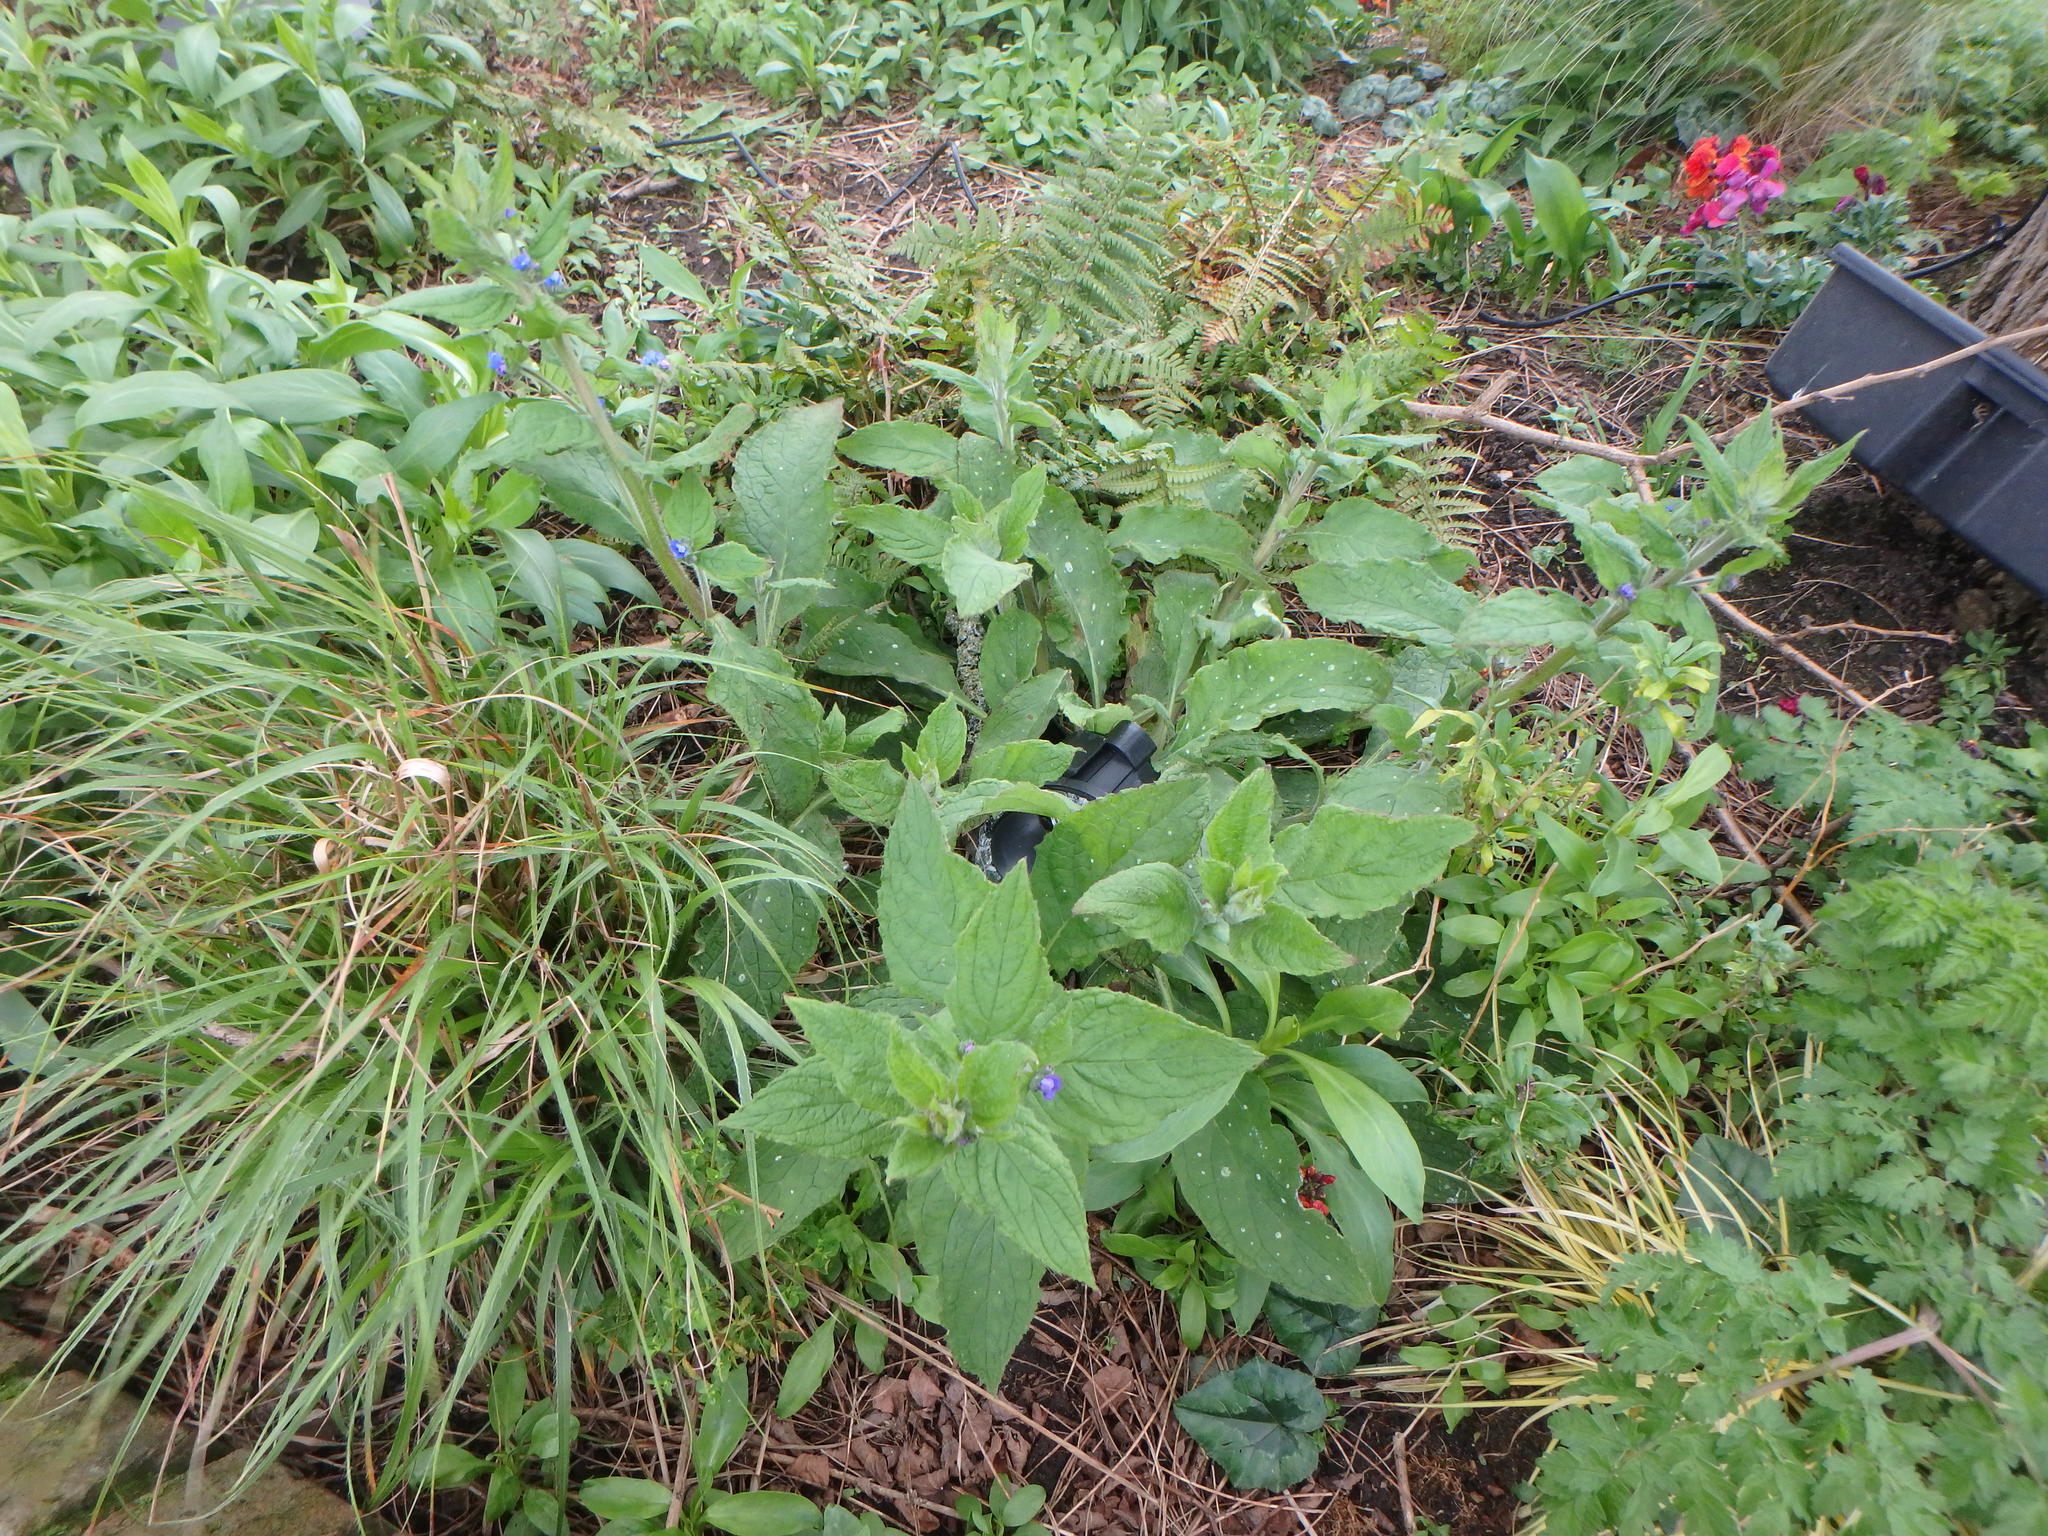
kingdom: Plantae
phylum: Tracheophyta
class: Magnoliopsida
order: Boraginales
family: Boraginaceae
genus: Pentaglottis
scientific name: Pentaglottis sempervirens
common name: Green alkanet
